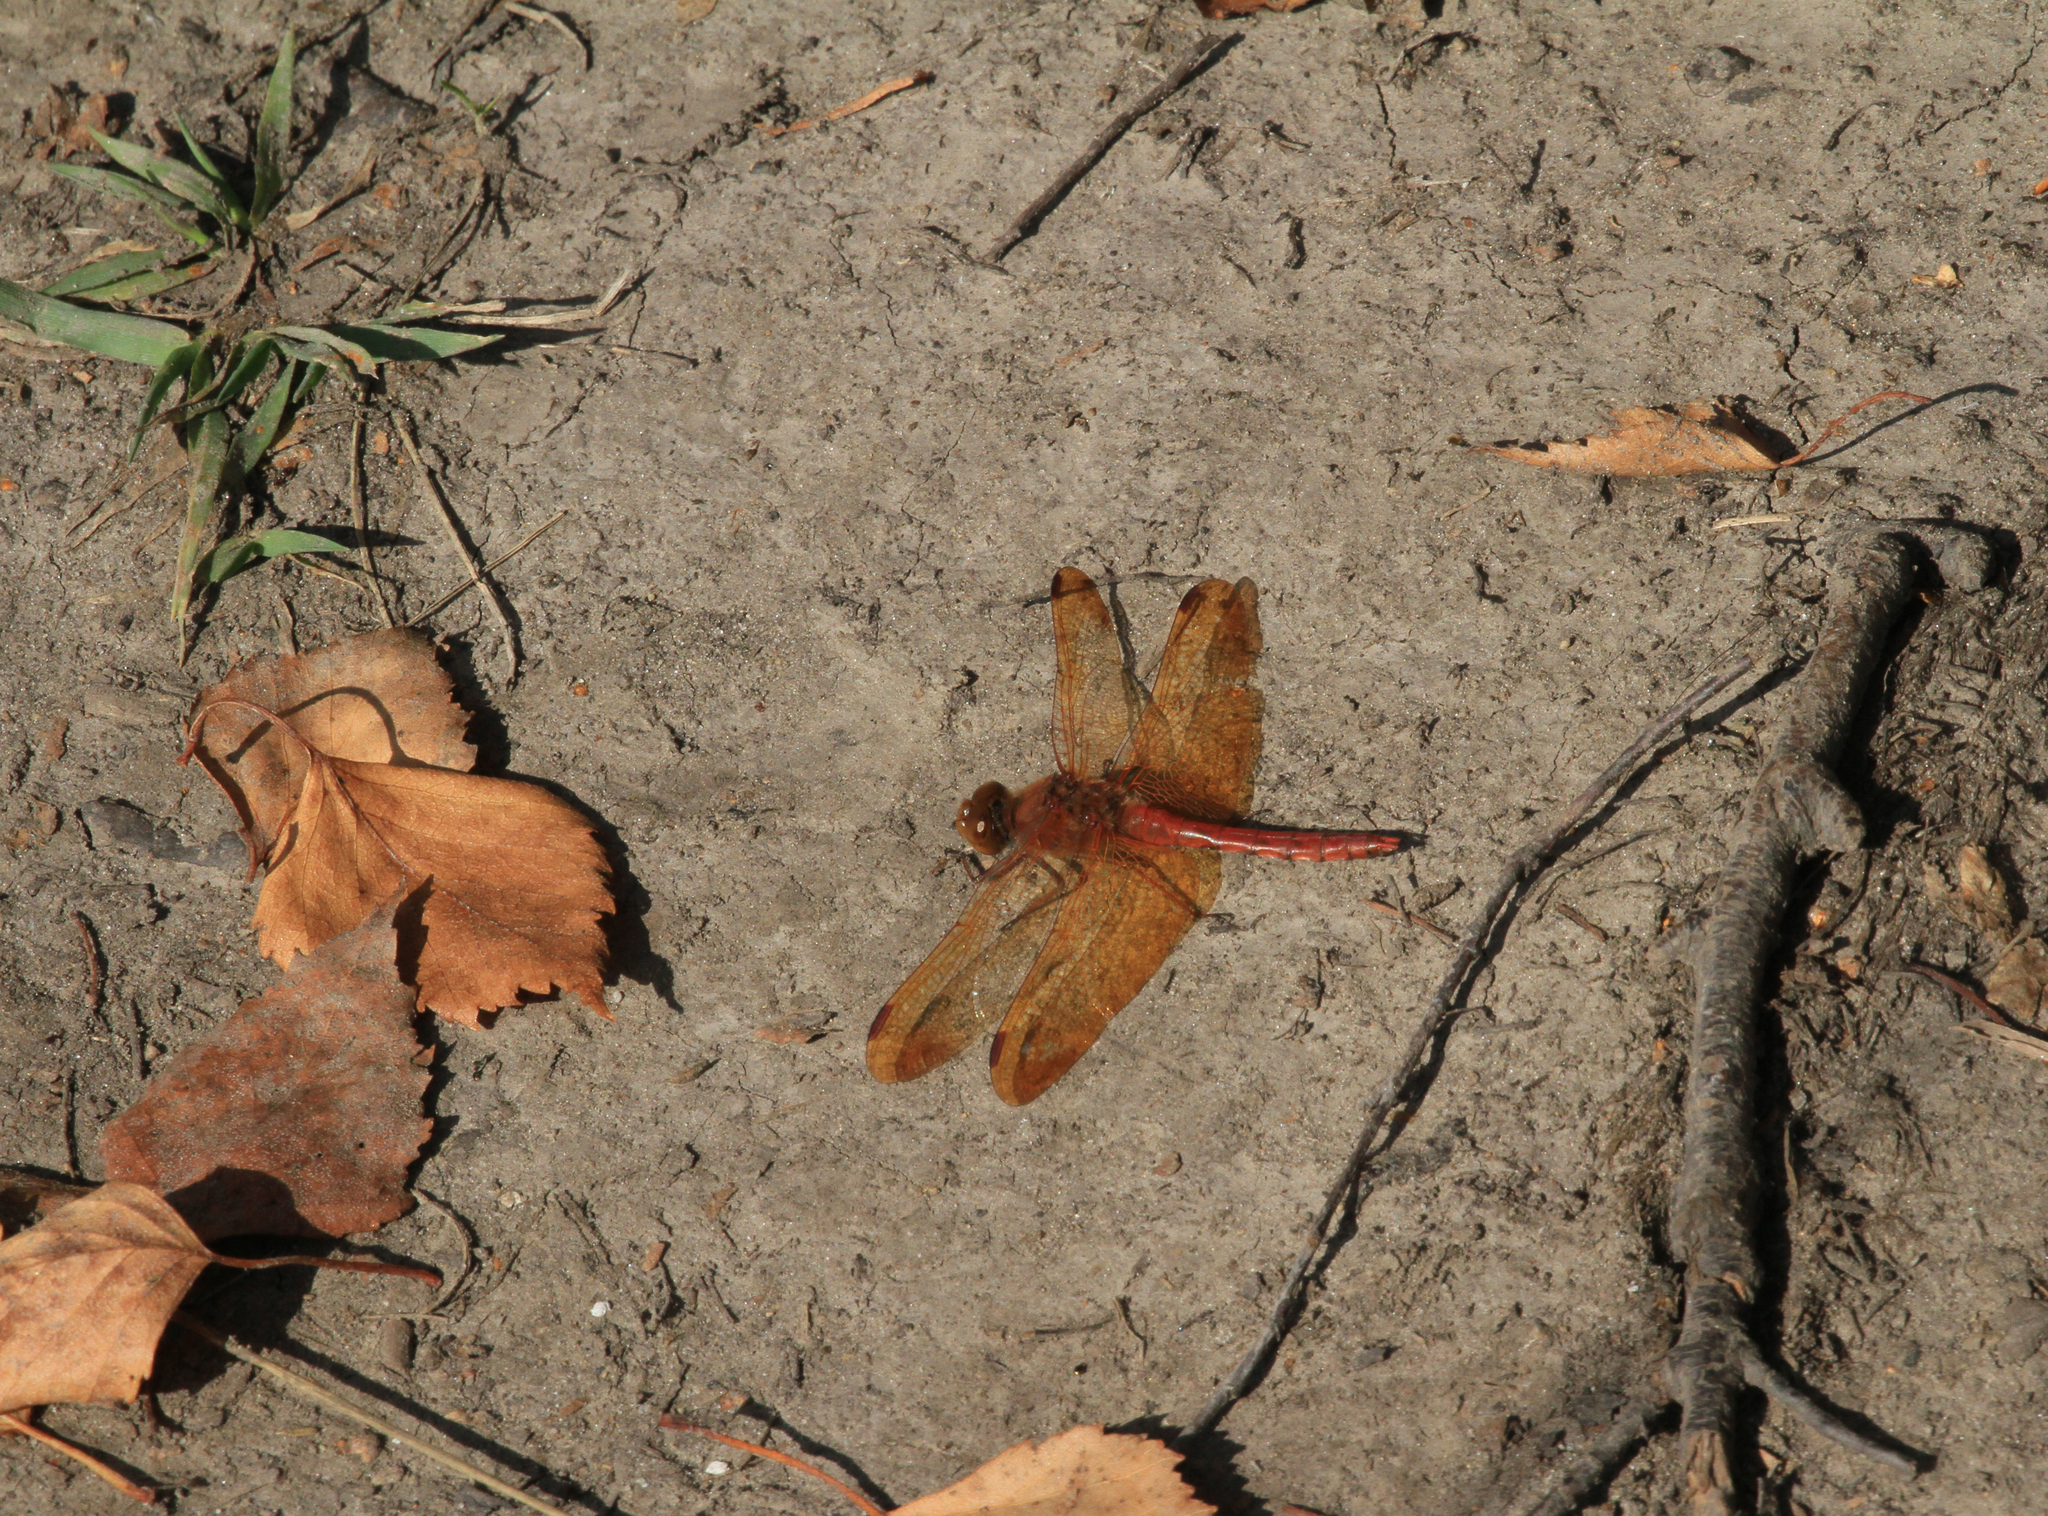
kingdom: Animalia
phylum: Arthropoda
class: Insecta
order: Odonata
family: Libellulidae
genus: Sympetrum
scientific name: Sympetrum croceolum
